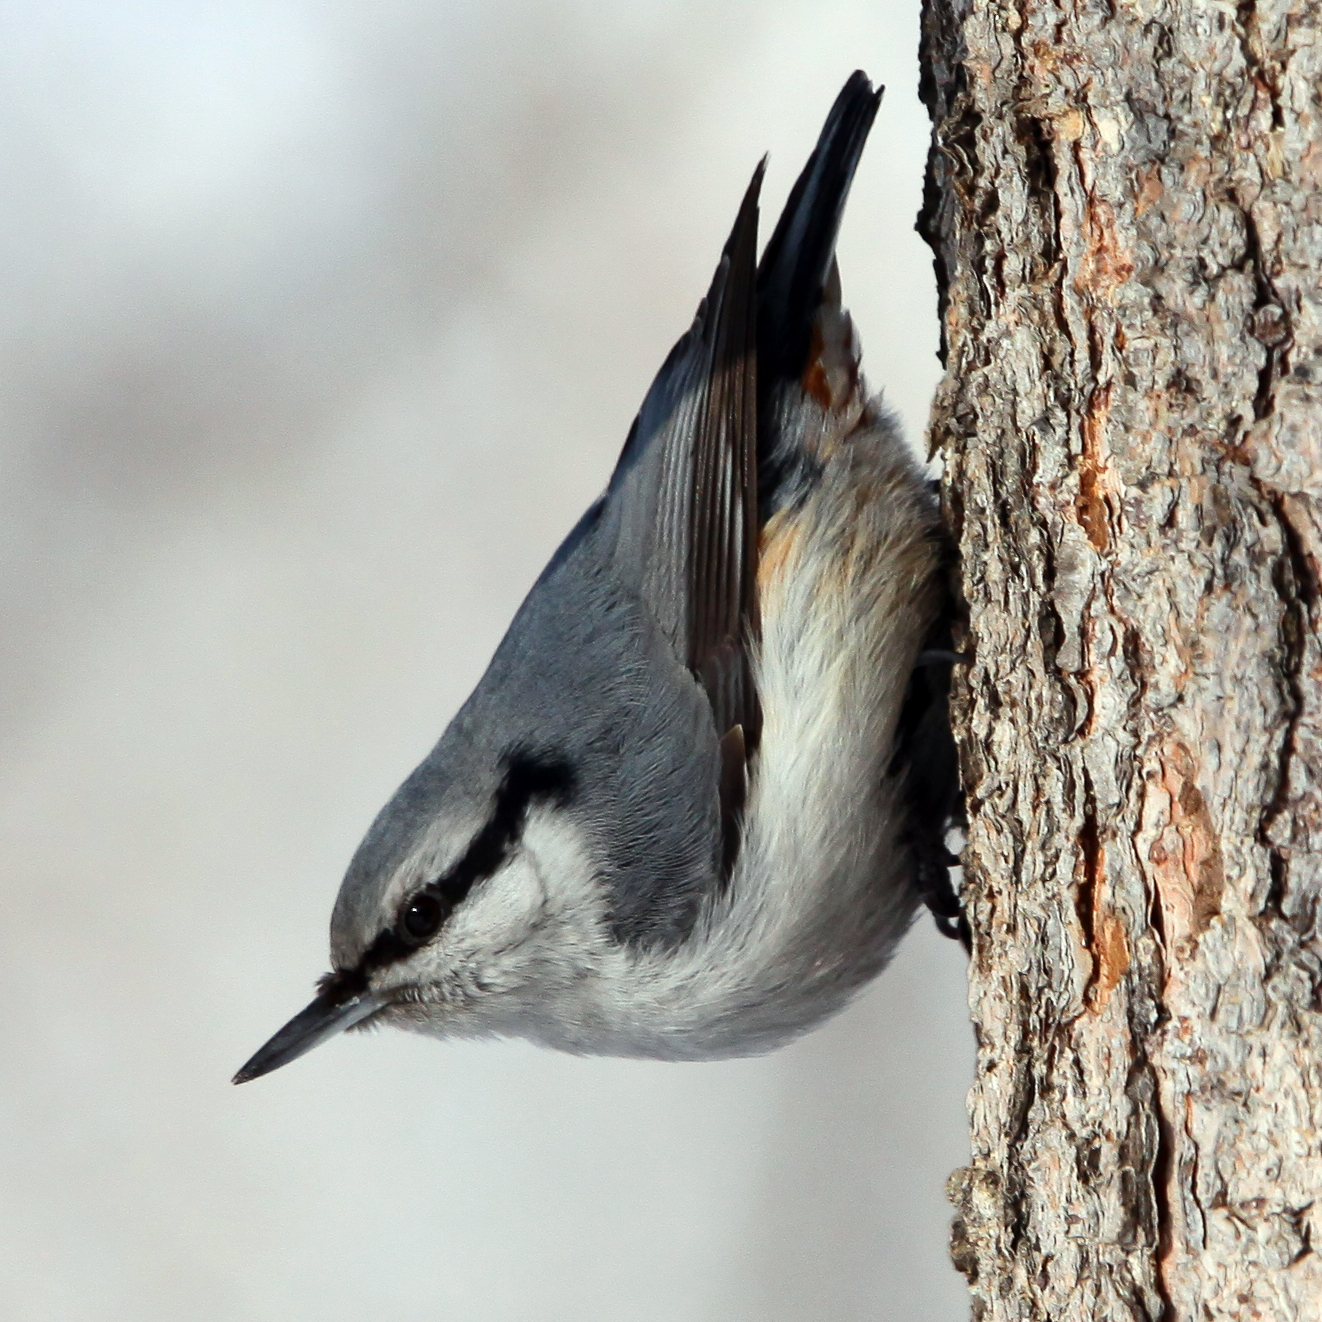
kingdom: Animalia
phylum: Chordata
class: Aves
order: Passeriformes
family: Sittidae
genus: Sitta
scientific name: Sitta europaea
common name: Eurasian nuthatch
